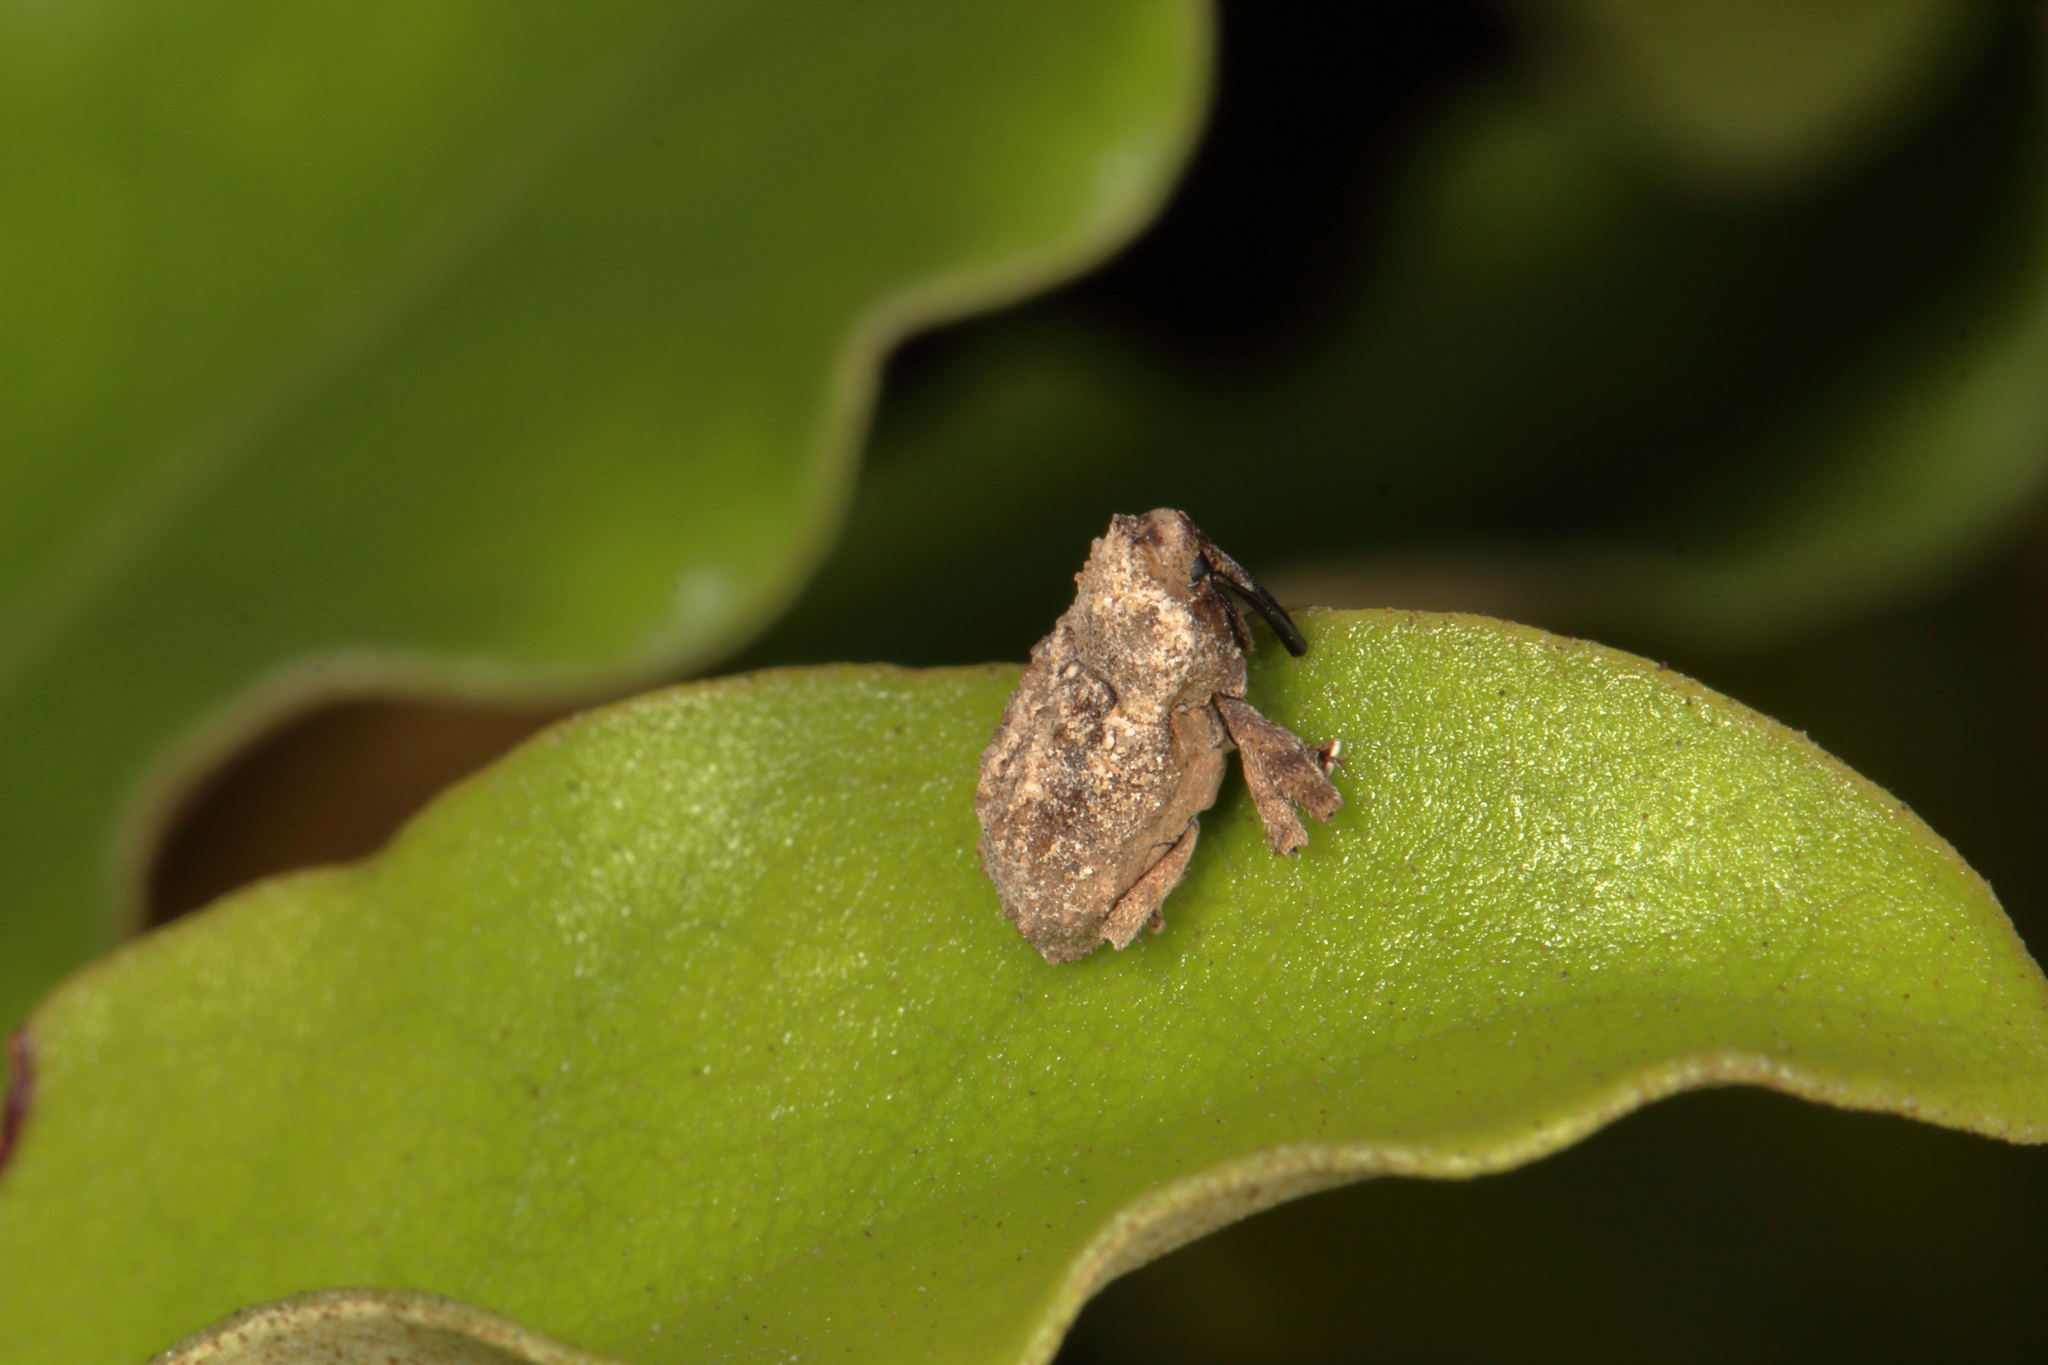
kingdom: Animalia
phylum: Arthropoda
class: Insecta
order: Coleoptera
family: Curculionidae
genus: Mecistostylus
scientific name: Mecistostylus douei
